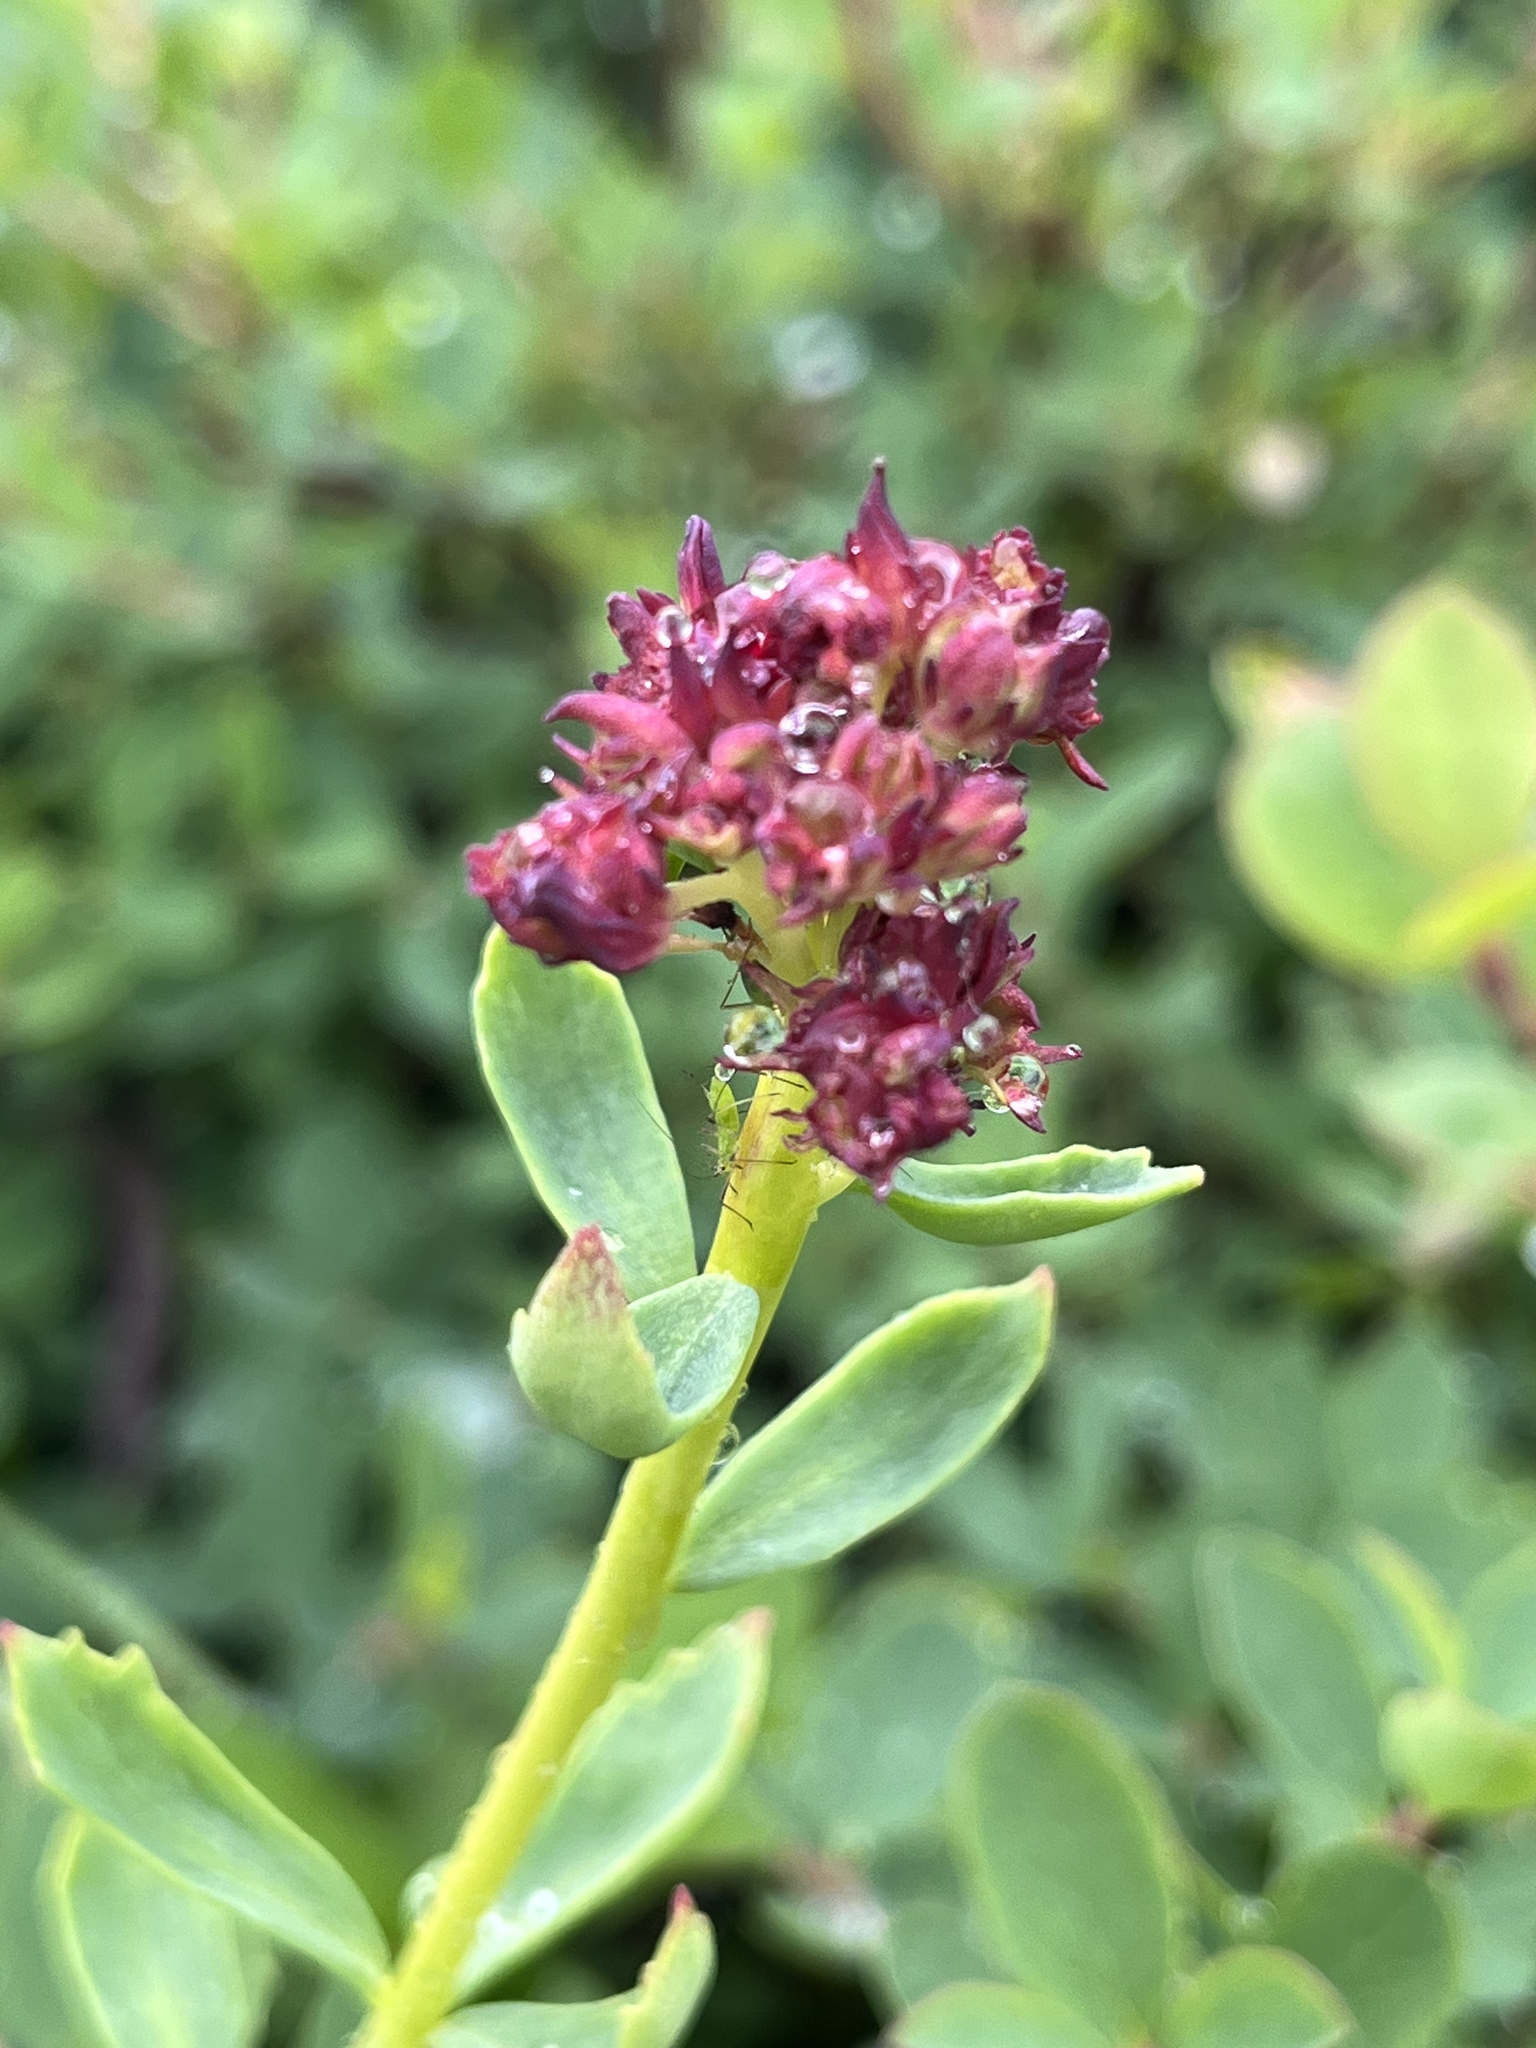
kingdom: Plantae
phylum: Tracheophyta
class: Magnoliopsida
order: Saxifragales
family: Crassulaceae
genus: Rhodiola
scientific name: Rhodiola integrifolia
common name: Western roseroot
